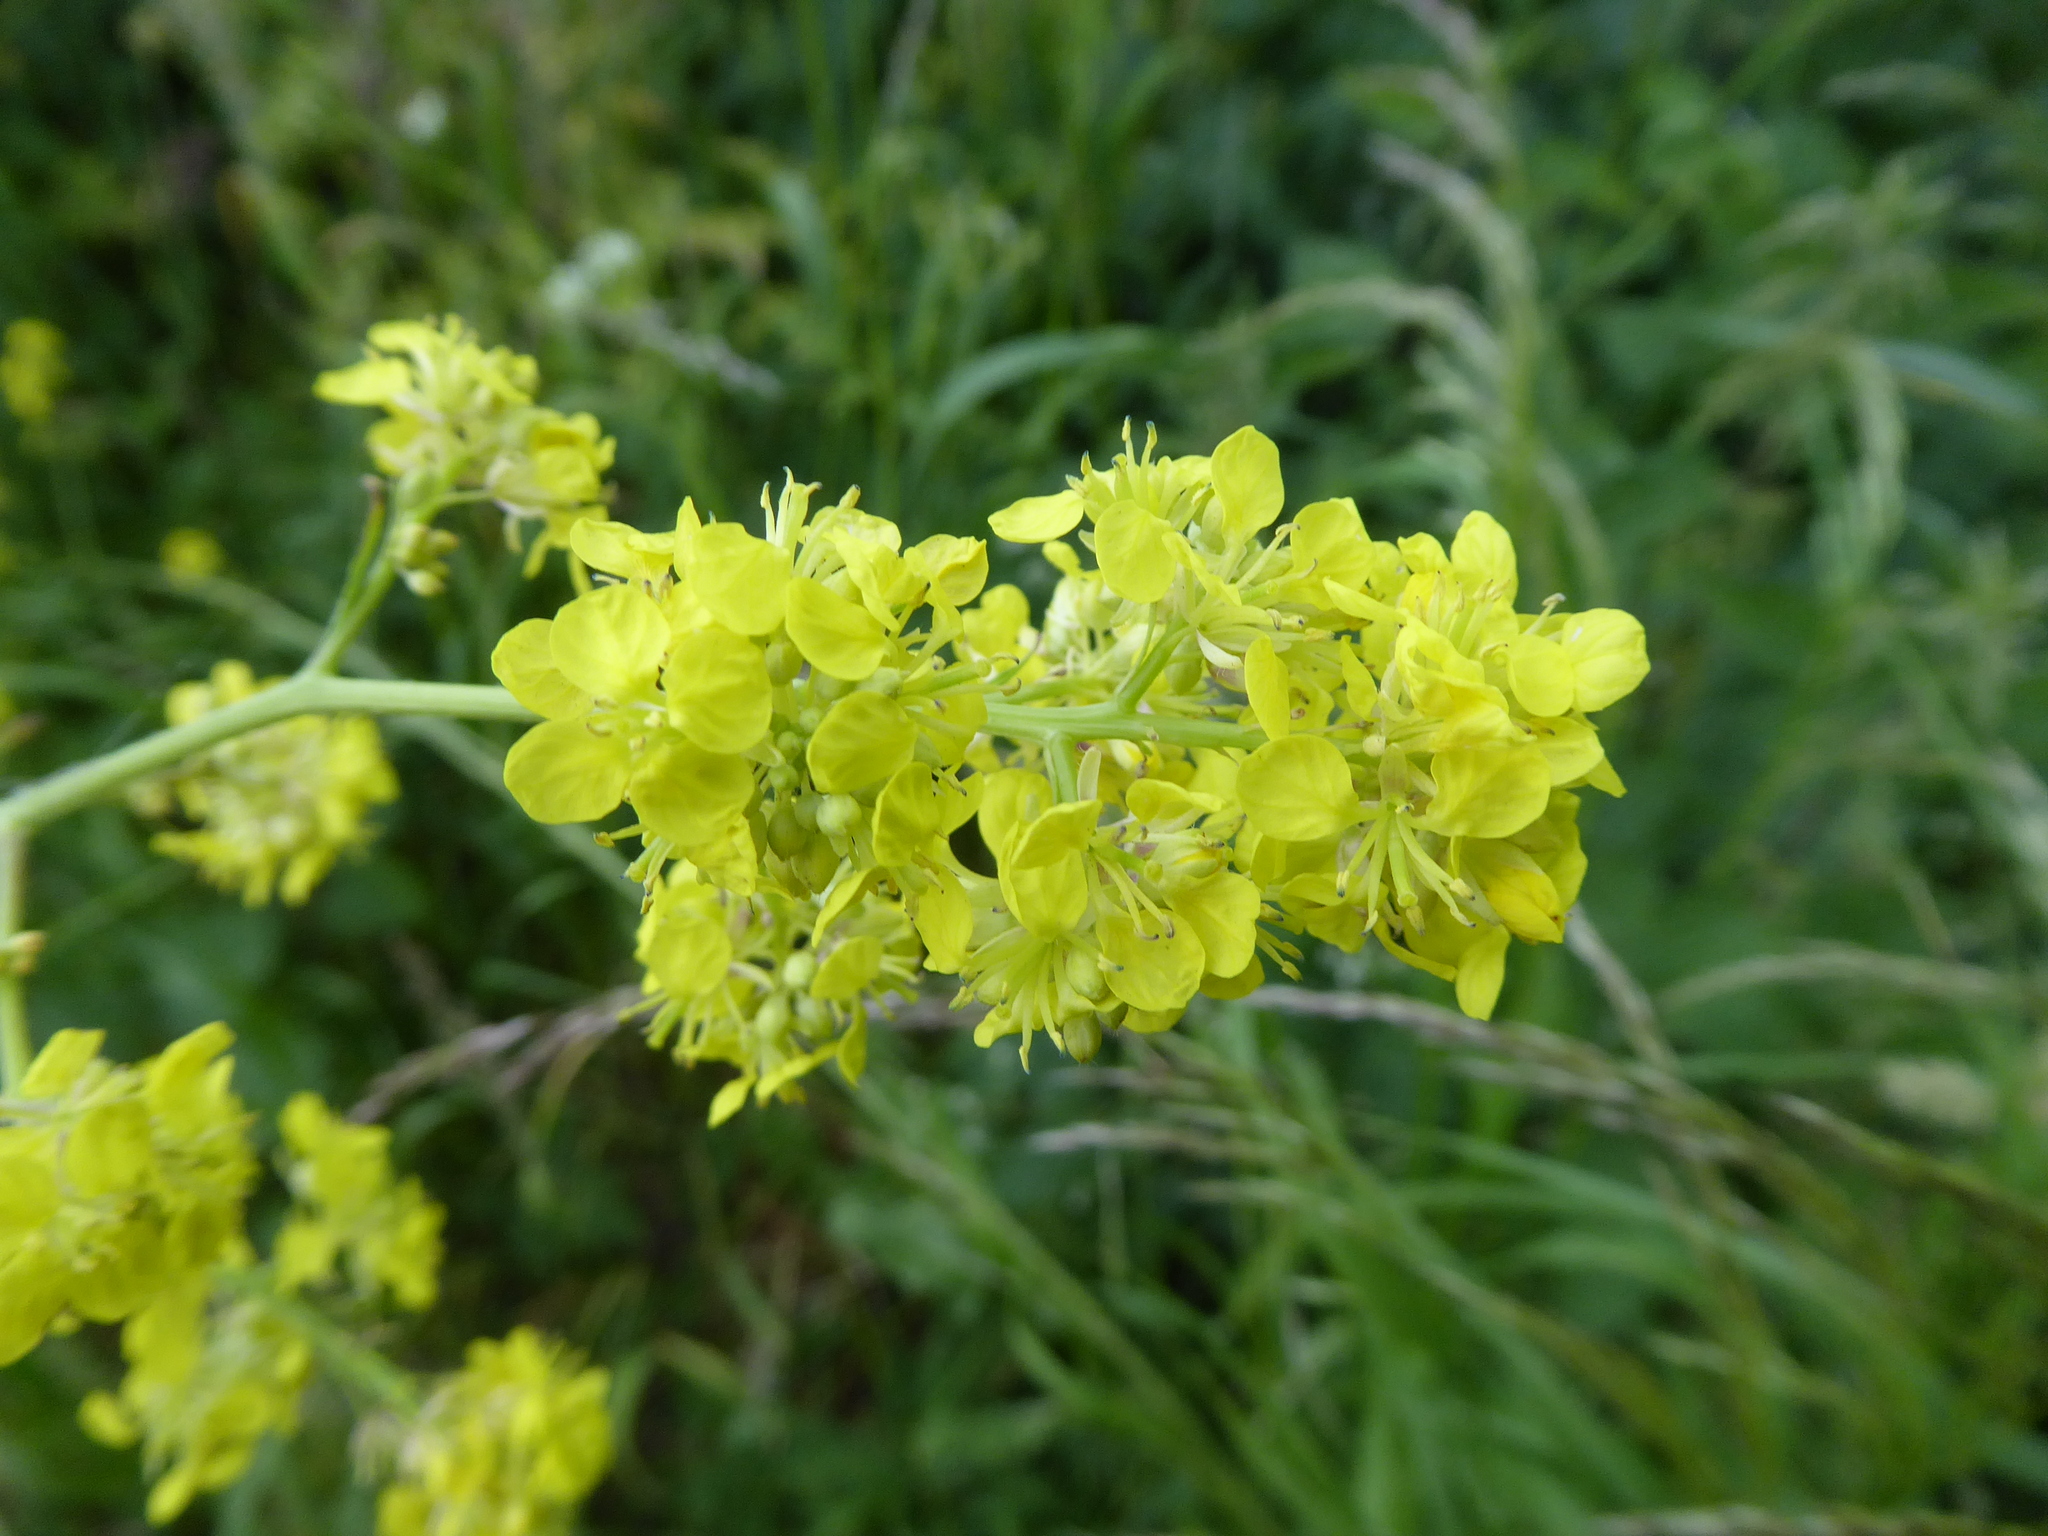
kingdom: Plantae
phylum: Tracheophyta
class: Magnoliopsida
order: Brassicales
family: Brassicaceae
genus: Hirschfeldia
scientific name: Hirschfeldia incana
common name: Hoary mustard
